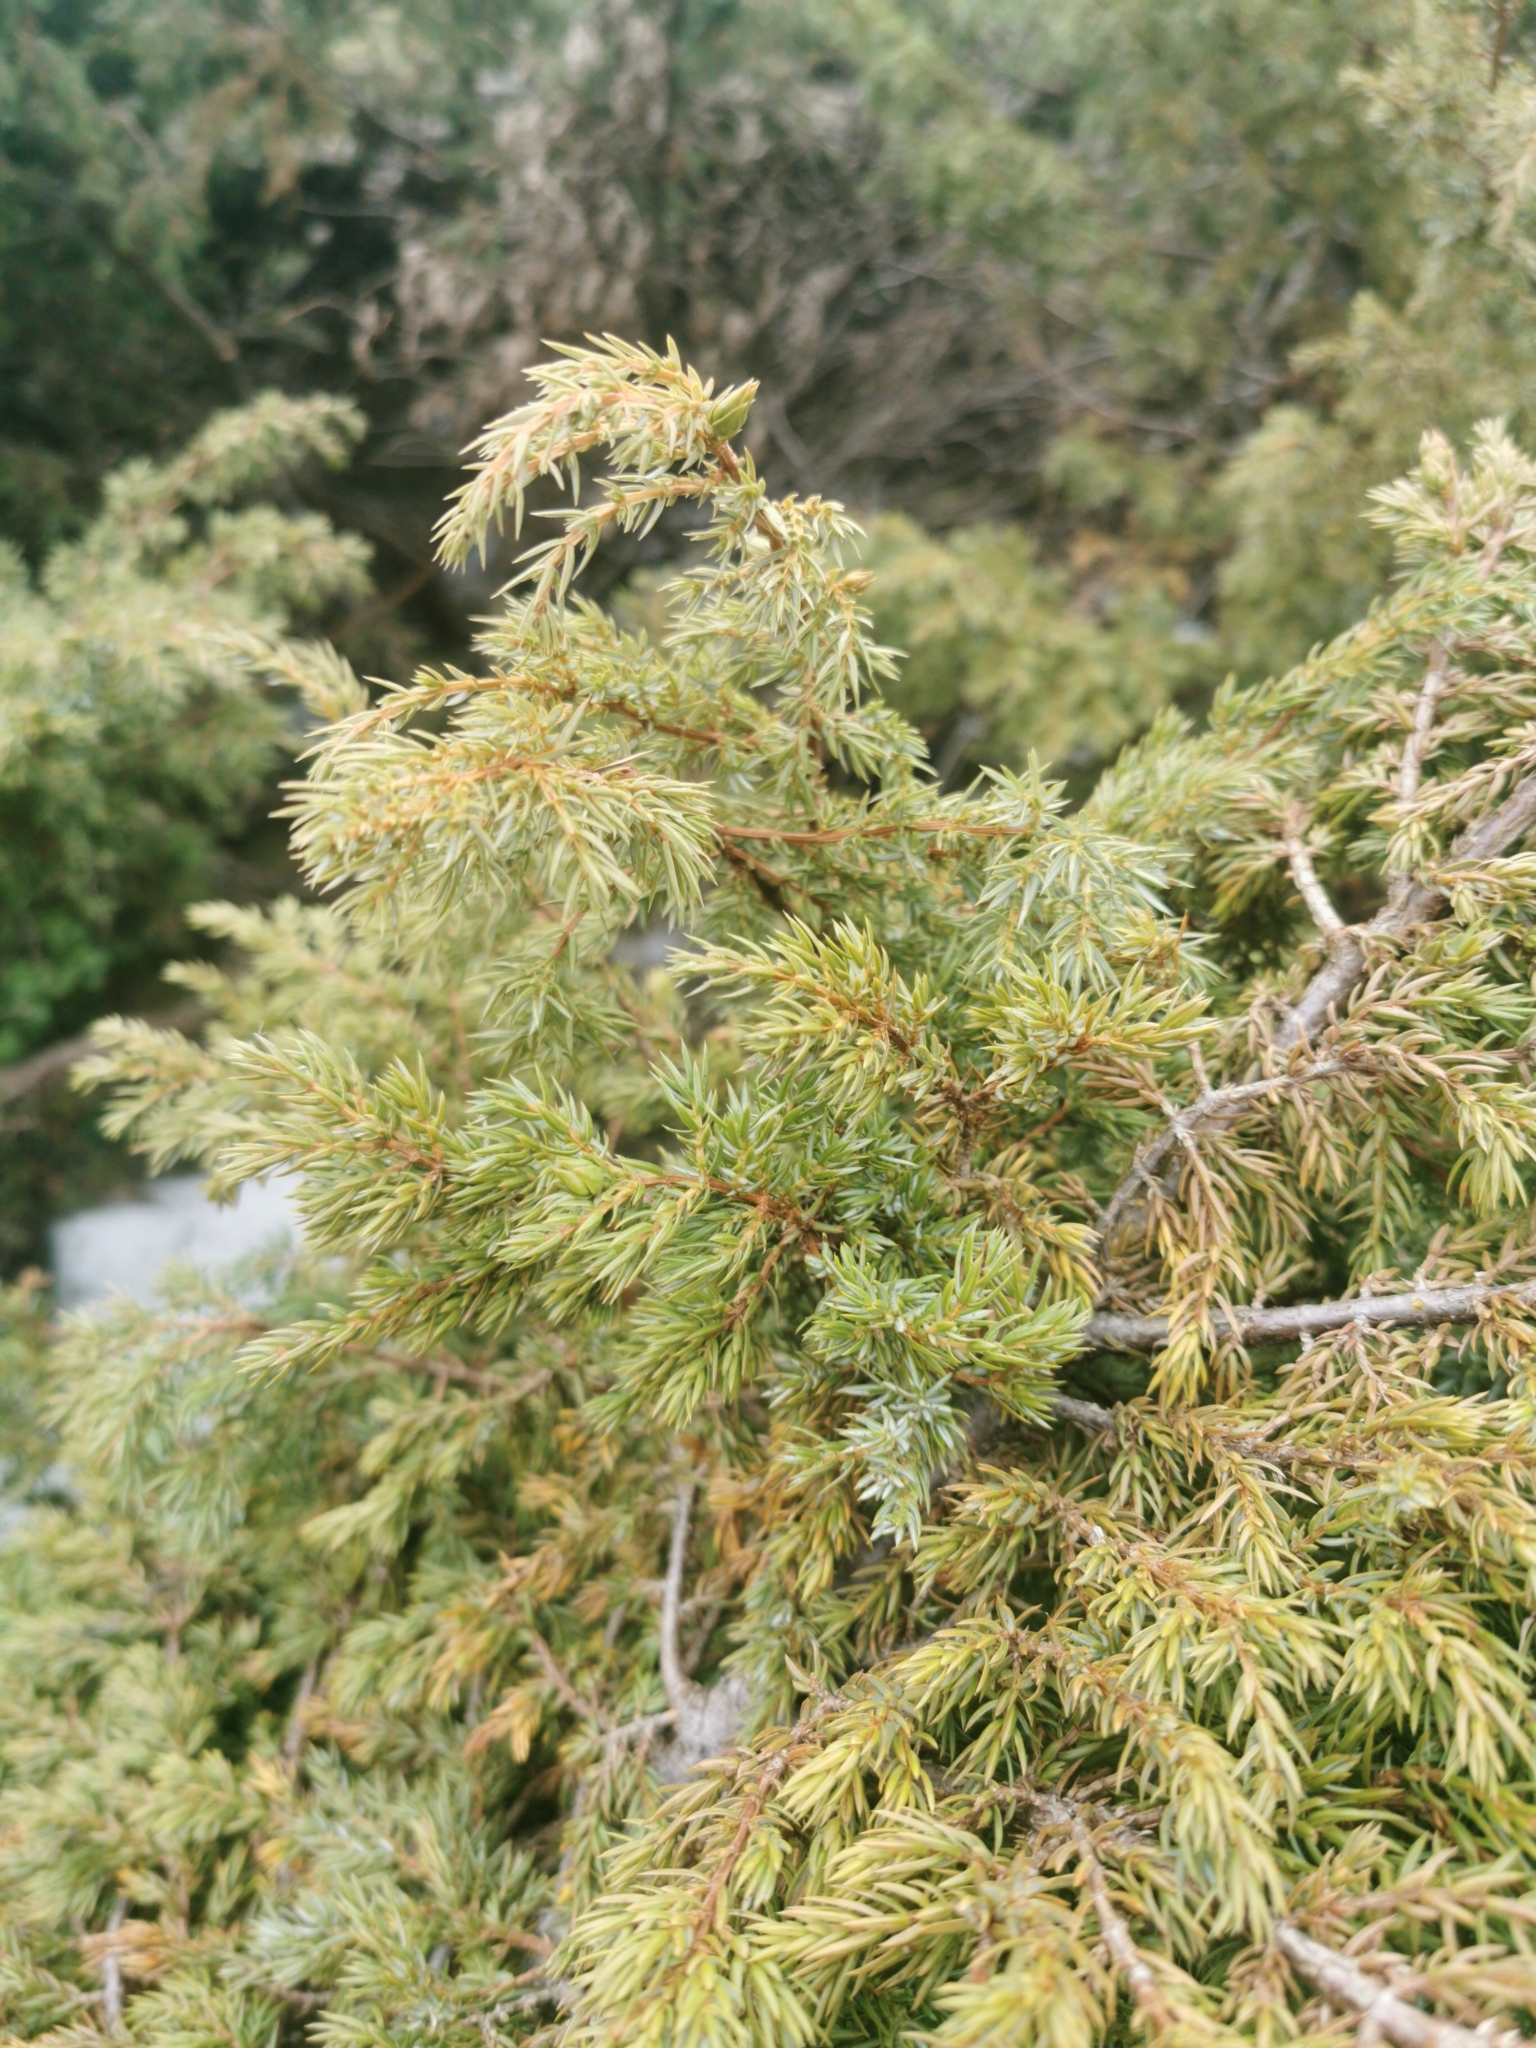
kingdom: Plantae
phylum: Tracheophyta
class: Pinopsida
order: Pinales
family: Cupressaceae
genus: Juniperus
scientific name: Juniperus communis
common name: Common juniper
